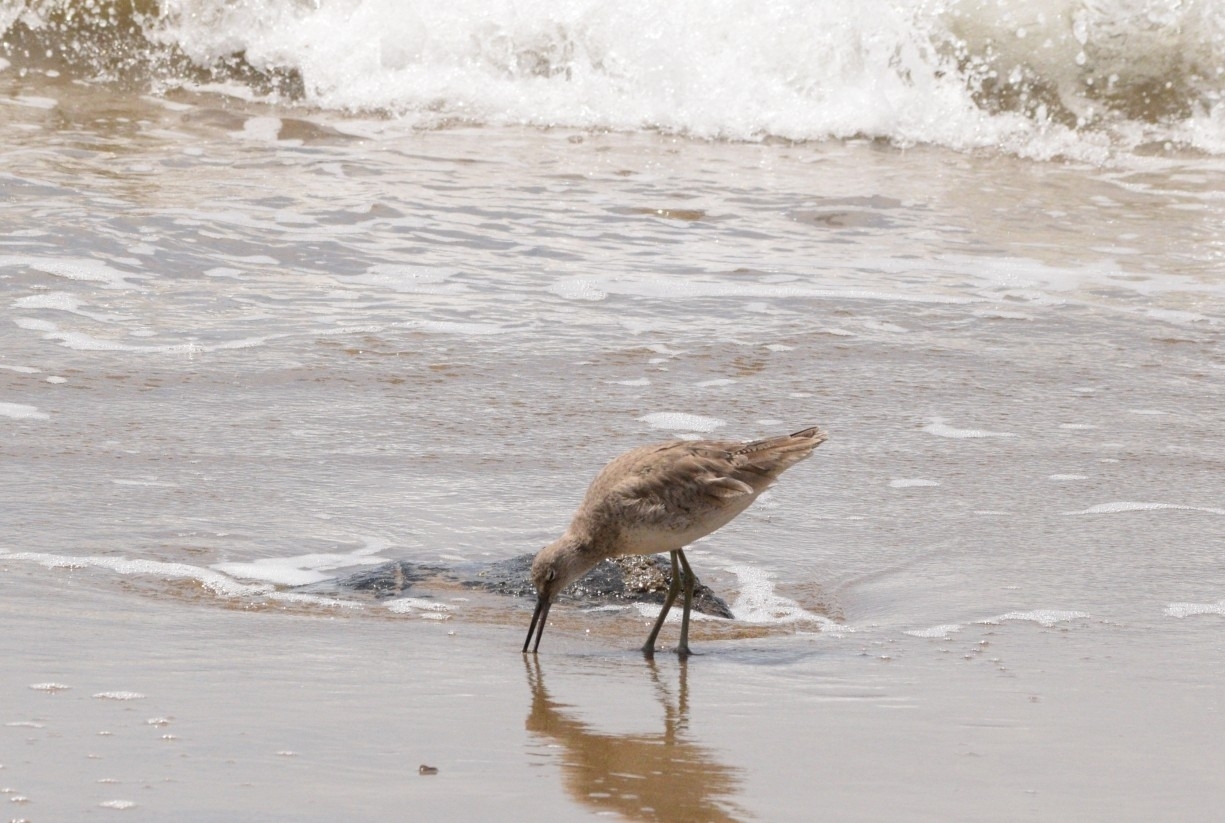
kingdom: Animalia
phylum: Chordata
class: Aves
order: Charadriiformes
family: Scolopacidae
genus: Tringa
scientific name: Tringa semipalmata
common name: Willet
